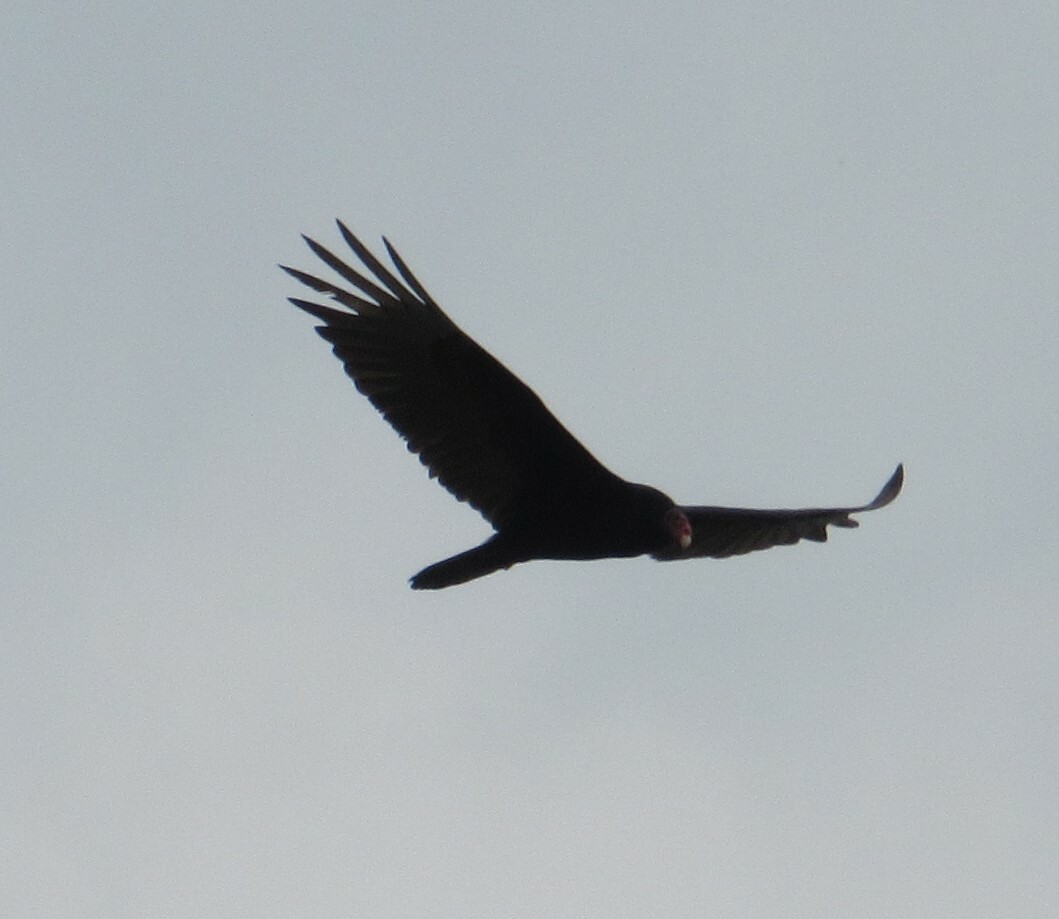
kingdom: Animalia
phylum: Chordata
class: Aves
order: Accipitriformes
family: Cathartidae
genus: Cathartes
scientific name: Cathartes aura
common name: Turkey vulture
